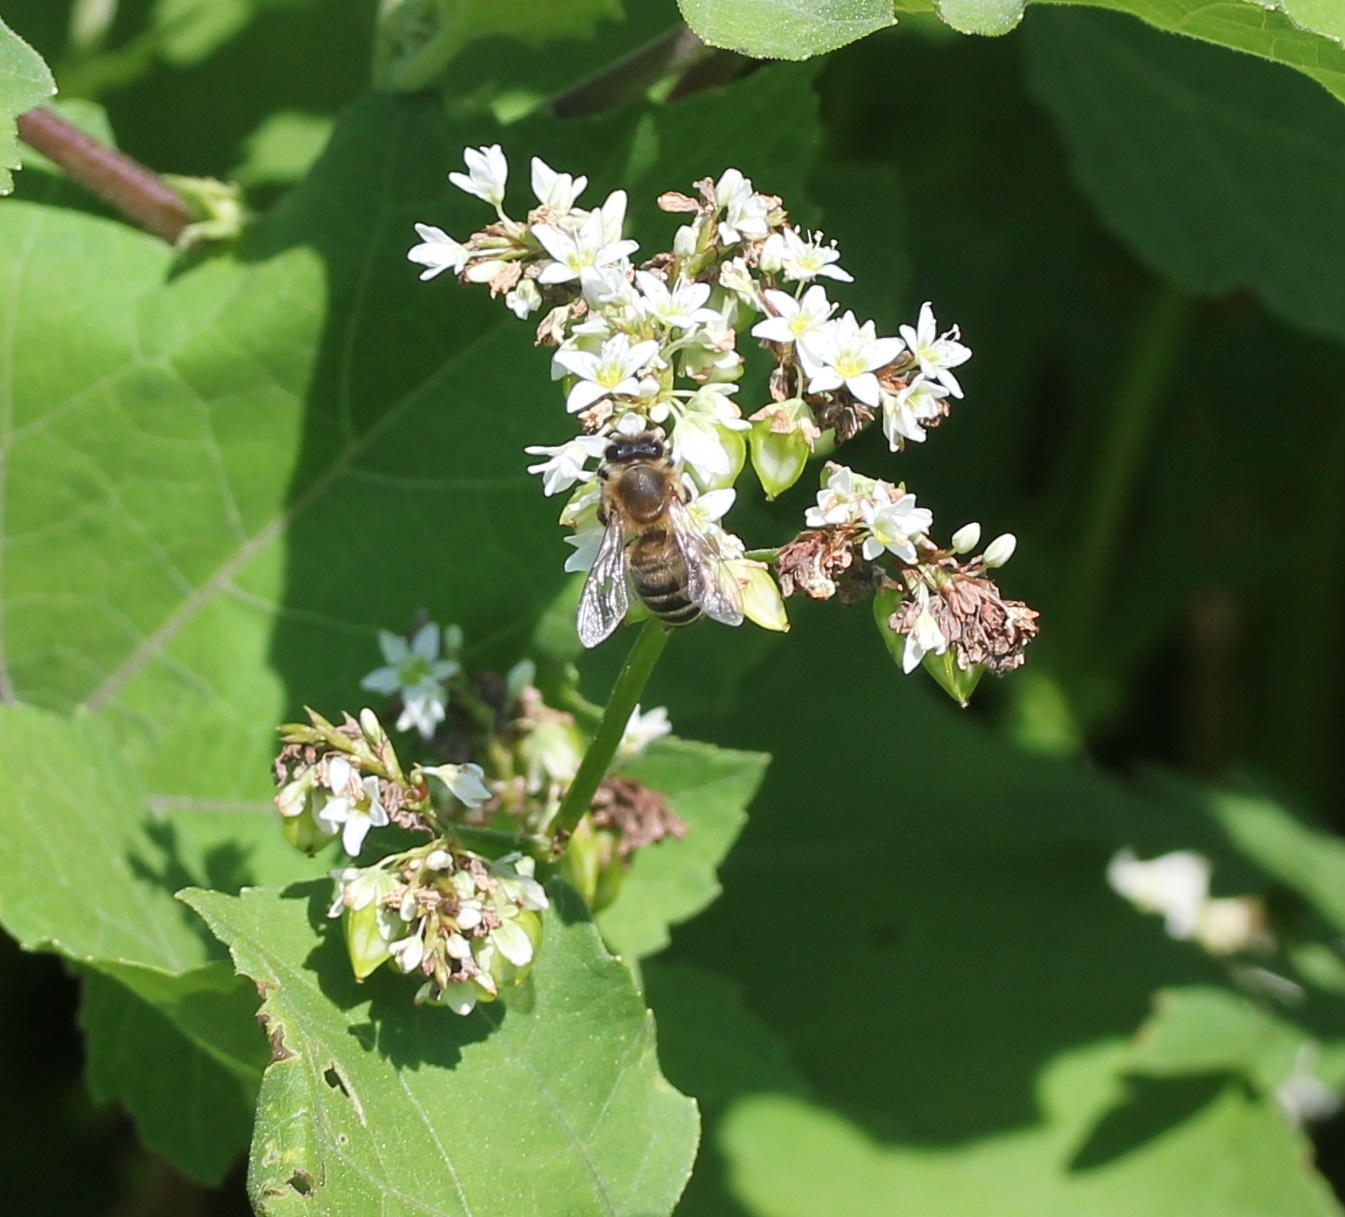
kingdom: Animalia
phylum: Arthropoda
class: Insecta
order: Hymenoptera
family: Apidae
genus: Apis
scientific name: Apis mellifera
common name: Honey bee
